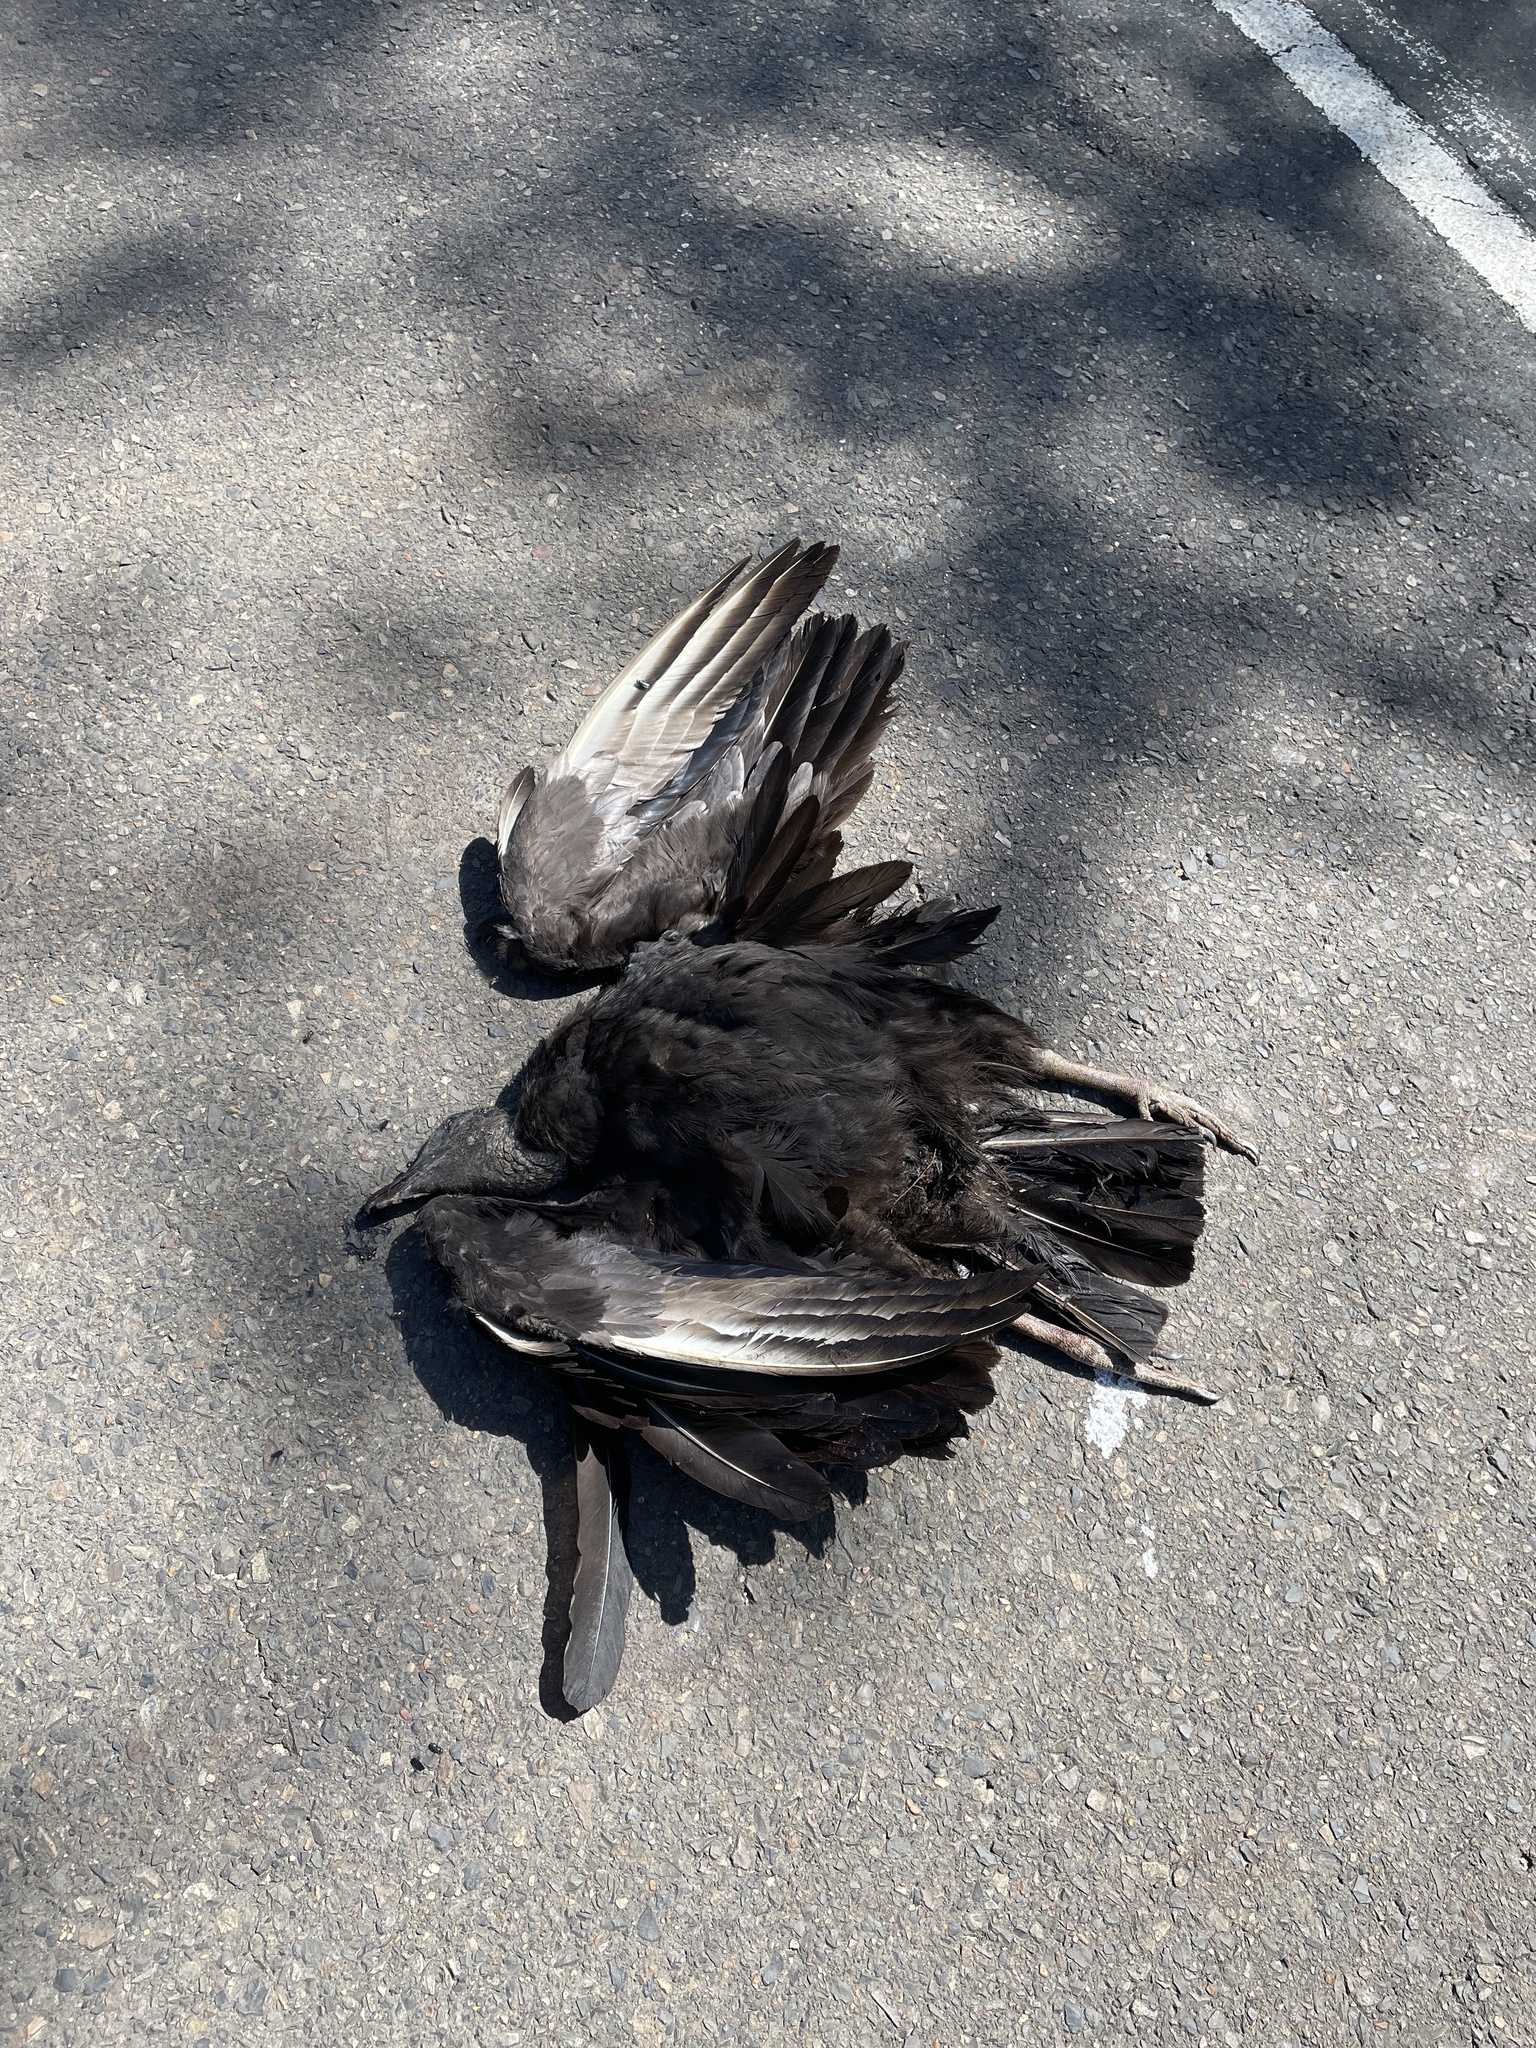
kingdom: Animalia
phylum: Chordata
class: Aves
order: Accipitriformes
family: Cathartidae
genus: Coragyps
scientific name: Coragyps atratus
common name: Black vulture
